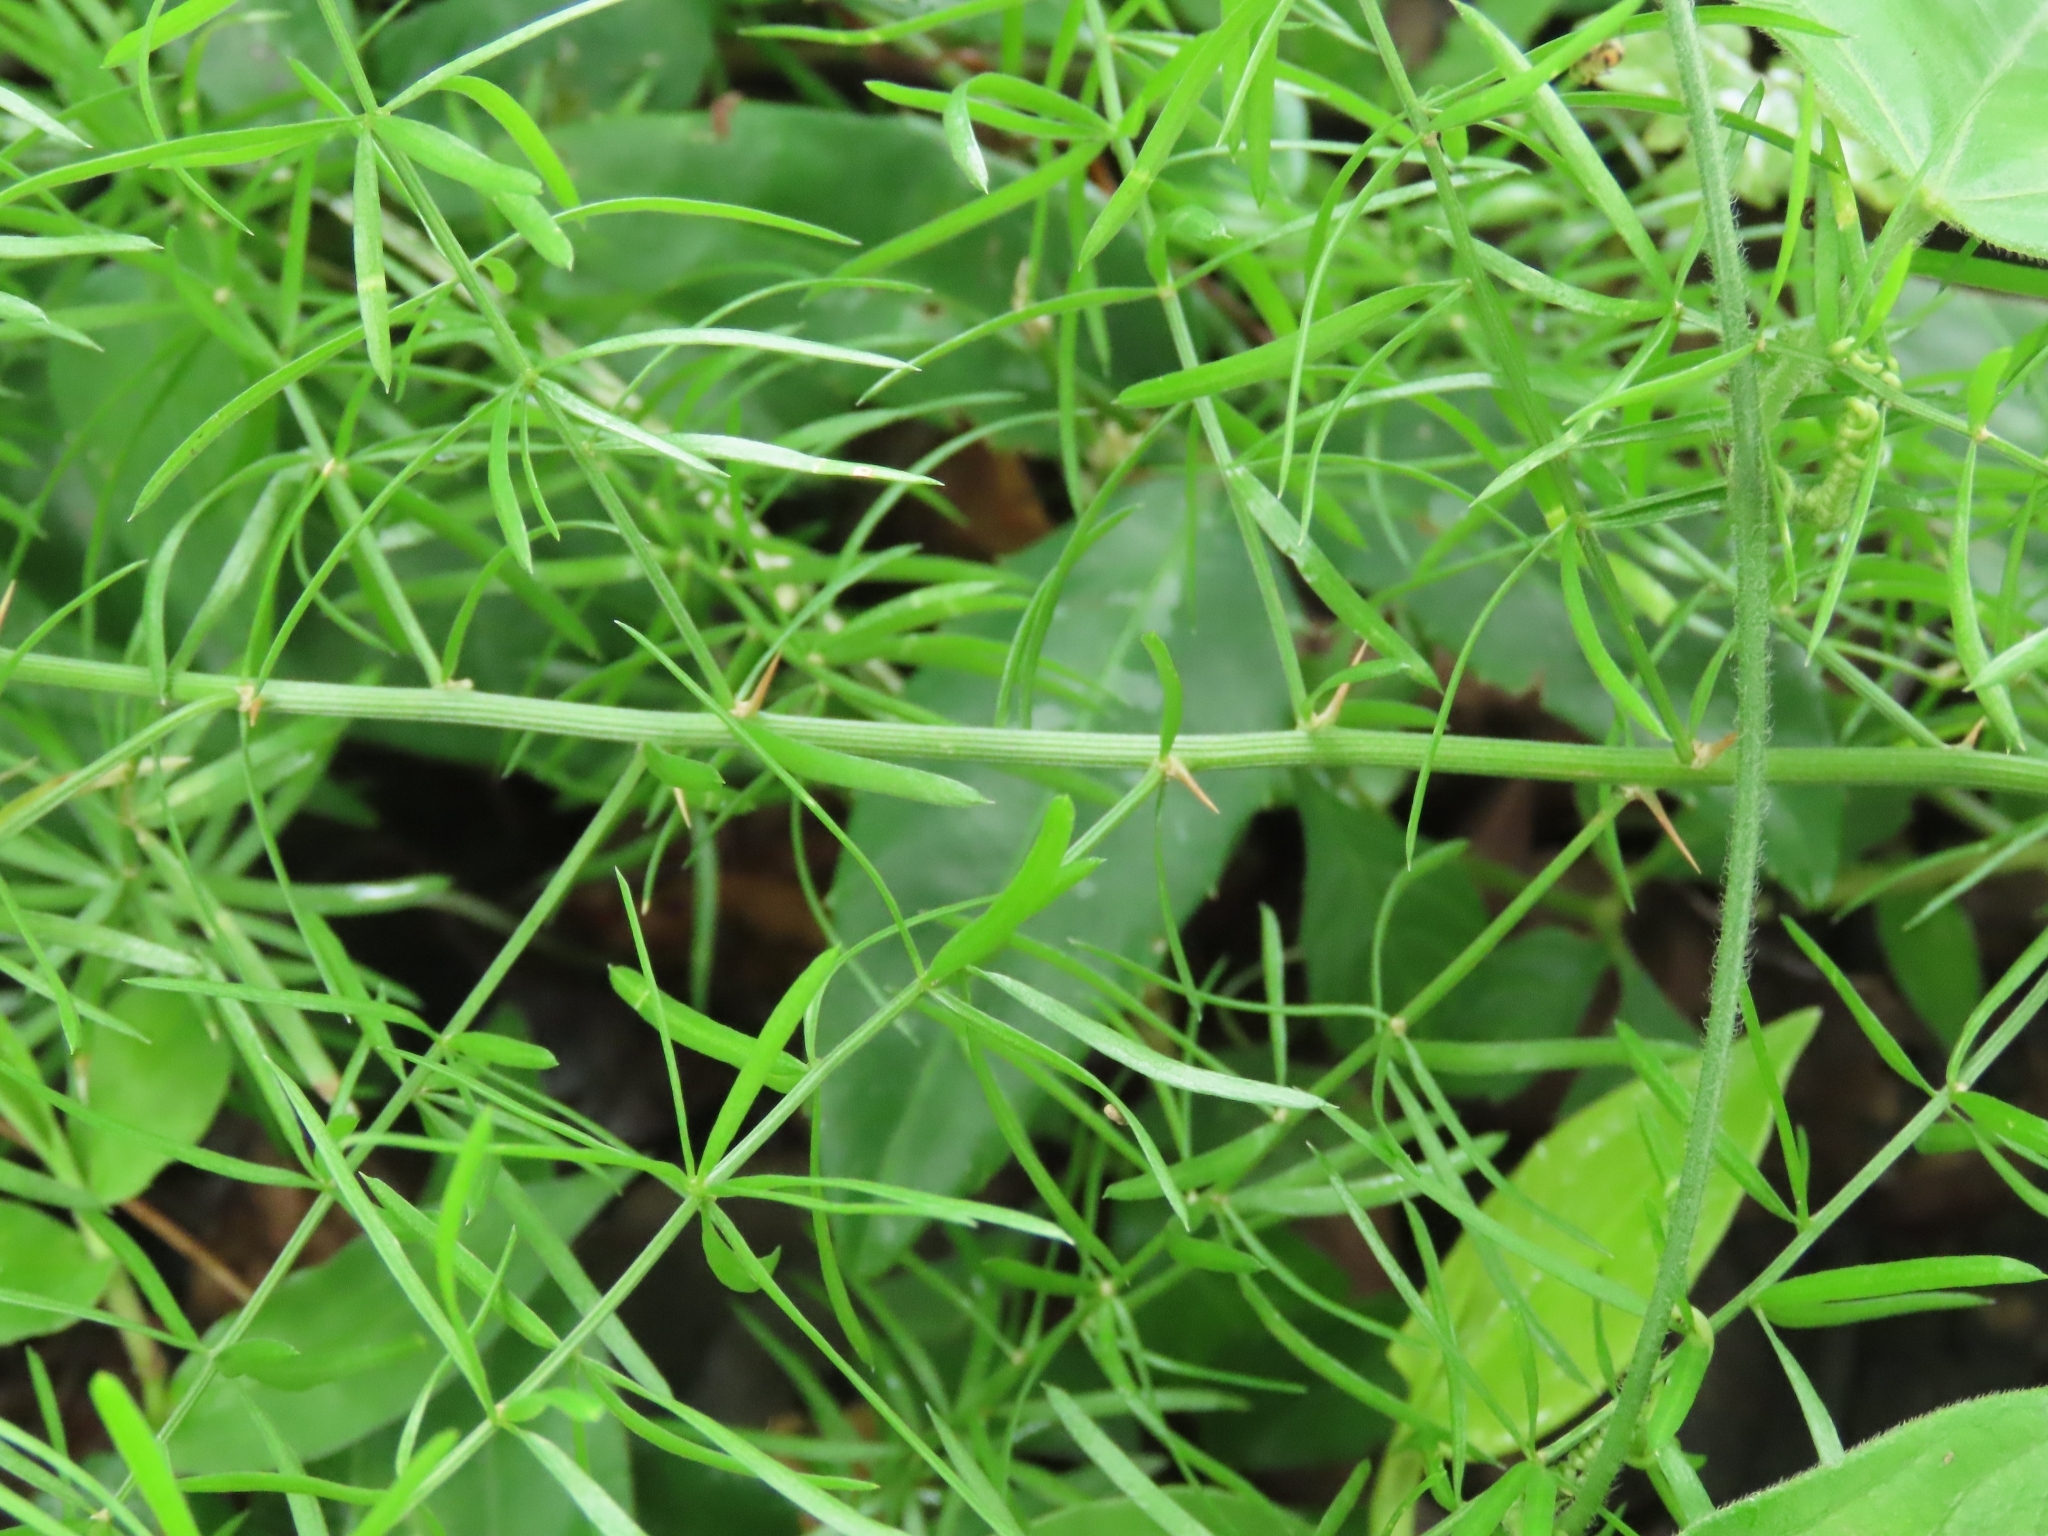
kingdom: Plantae
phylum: Tracheophyta
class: Liliopsida
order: Asparagales
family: Asparagaceae
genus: Asparagus
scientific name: Asparagus cochinchinensis
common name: Chinese asparagus
